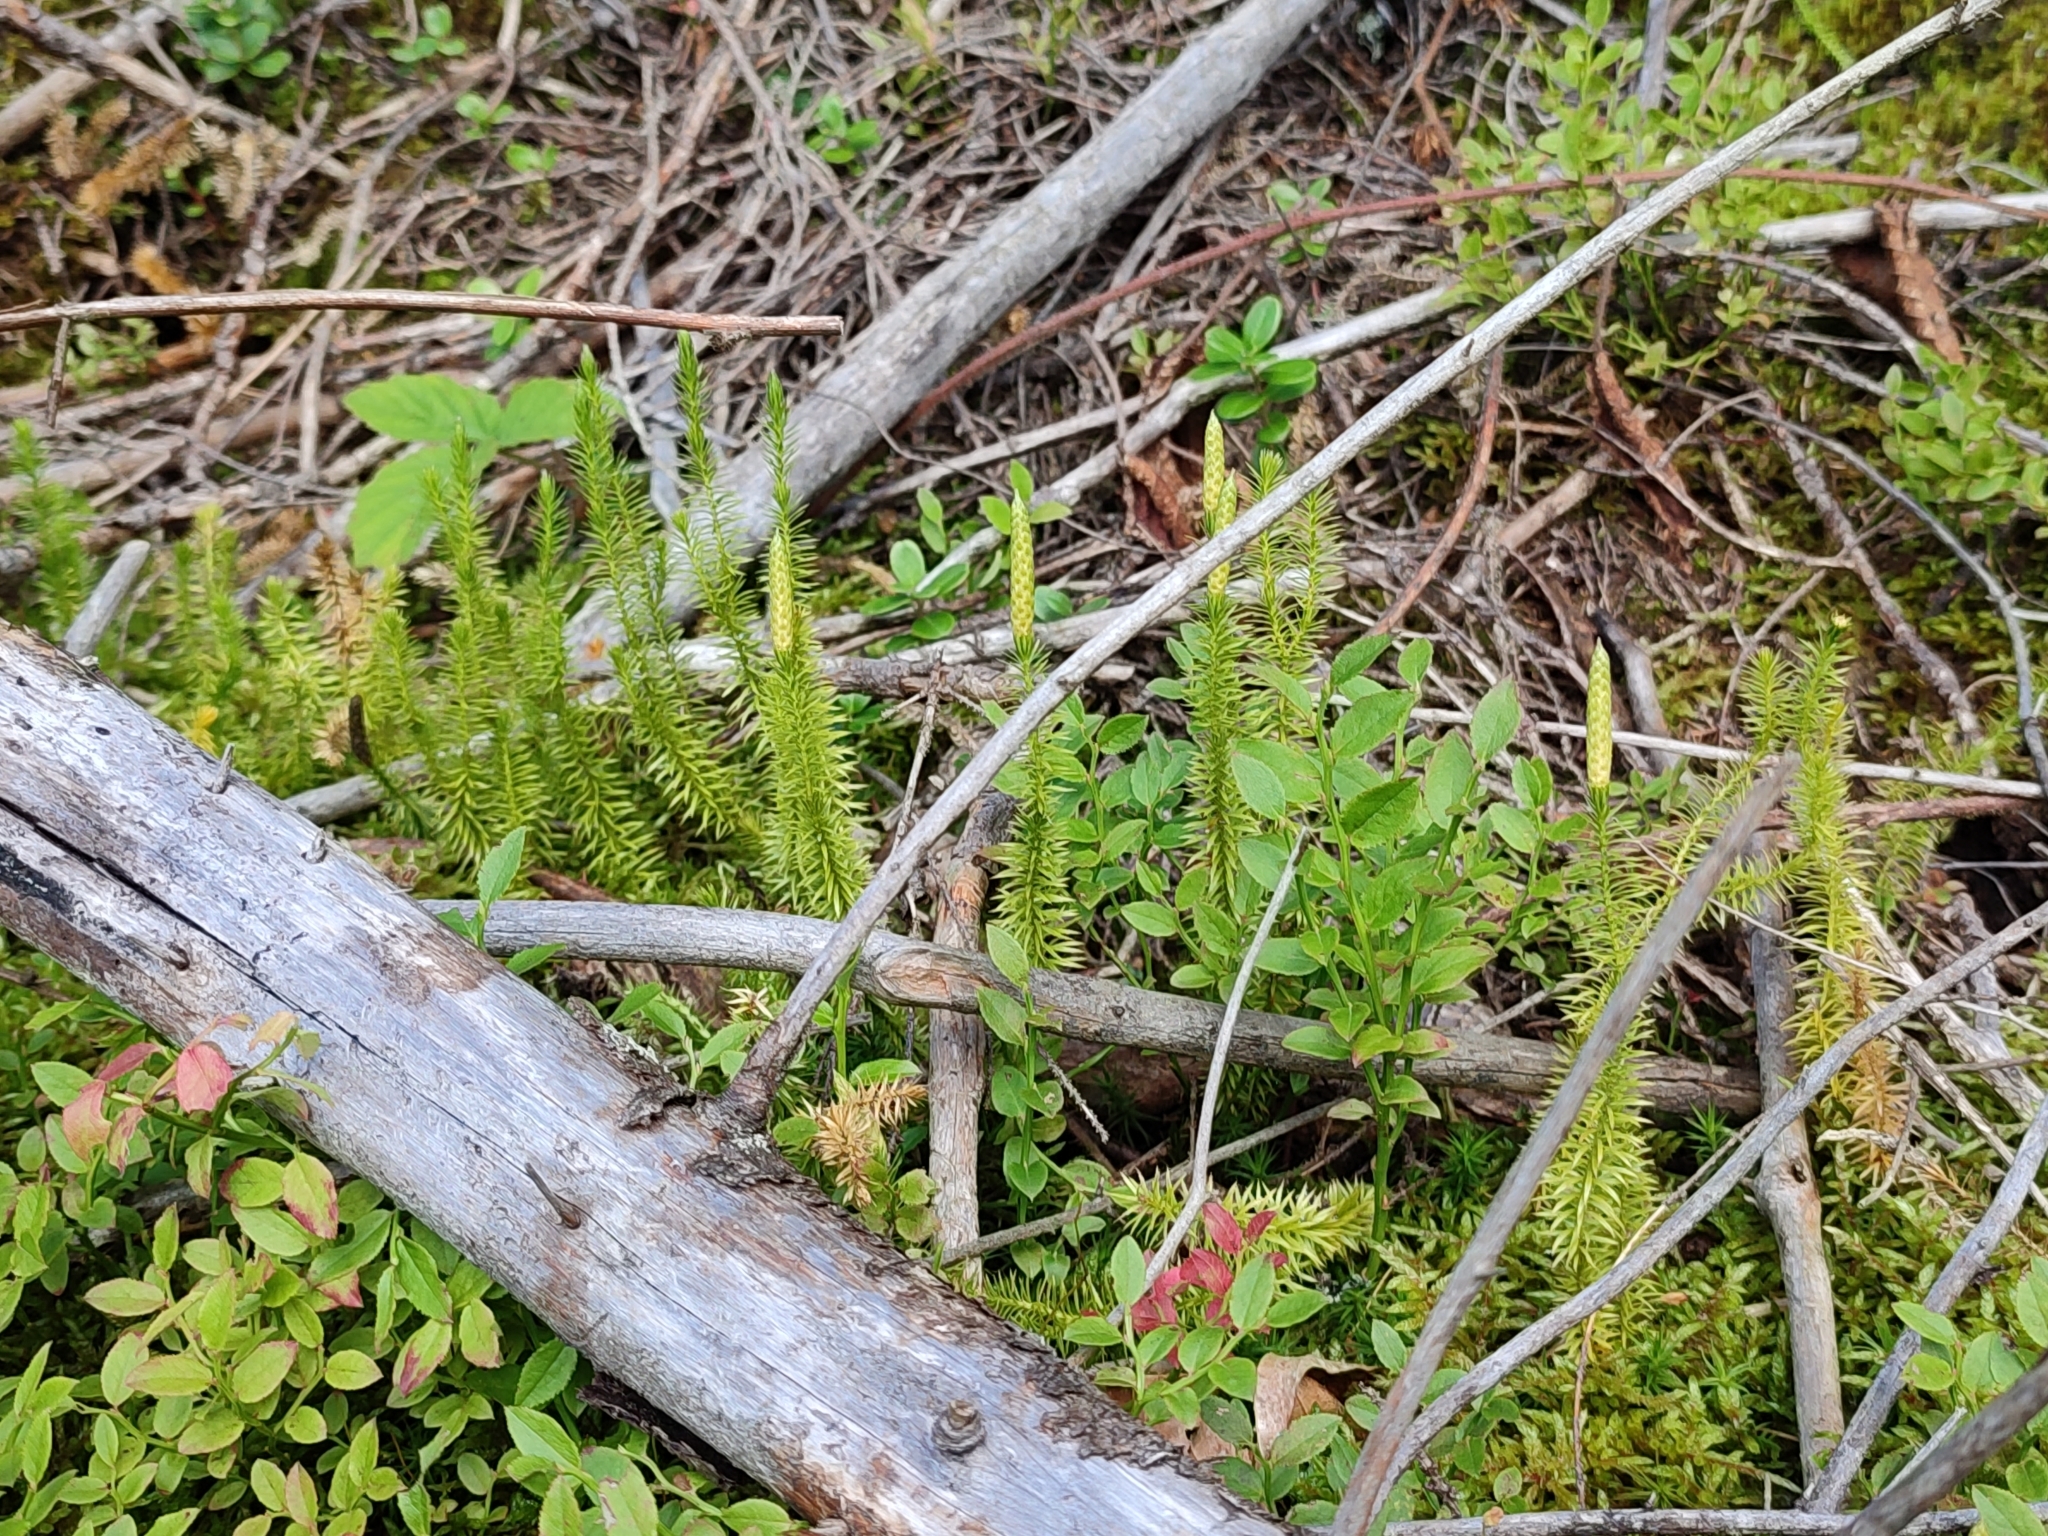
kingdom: Plantae
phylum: Tracheophyta
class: Lycopodiopsida
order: Lycopodiales
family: Lycopodiaceae
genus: Spinulum
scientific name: Spinulum annotinum
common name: Interrupted club-moss
